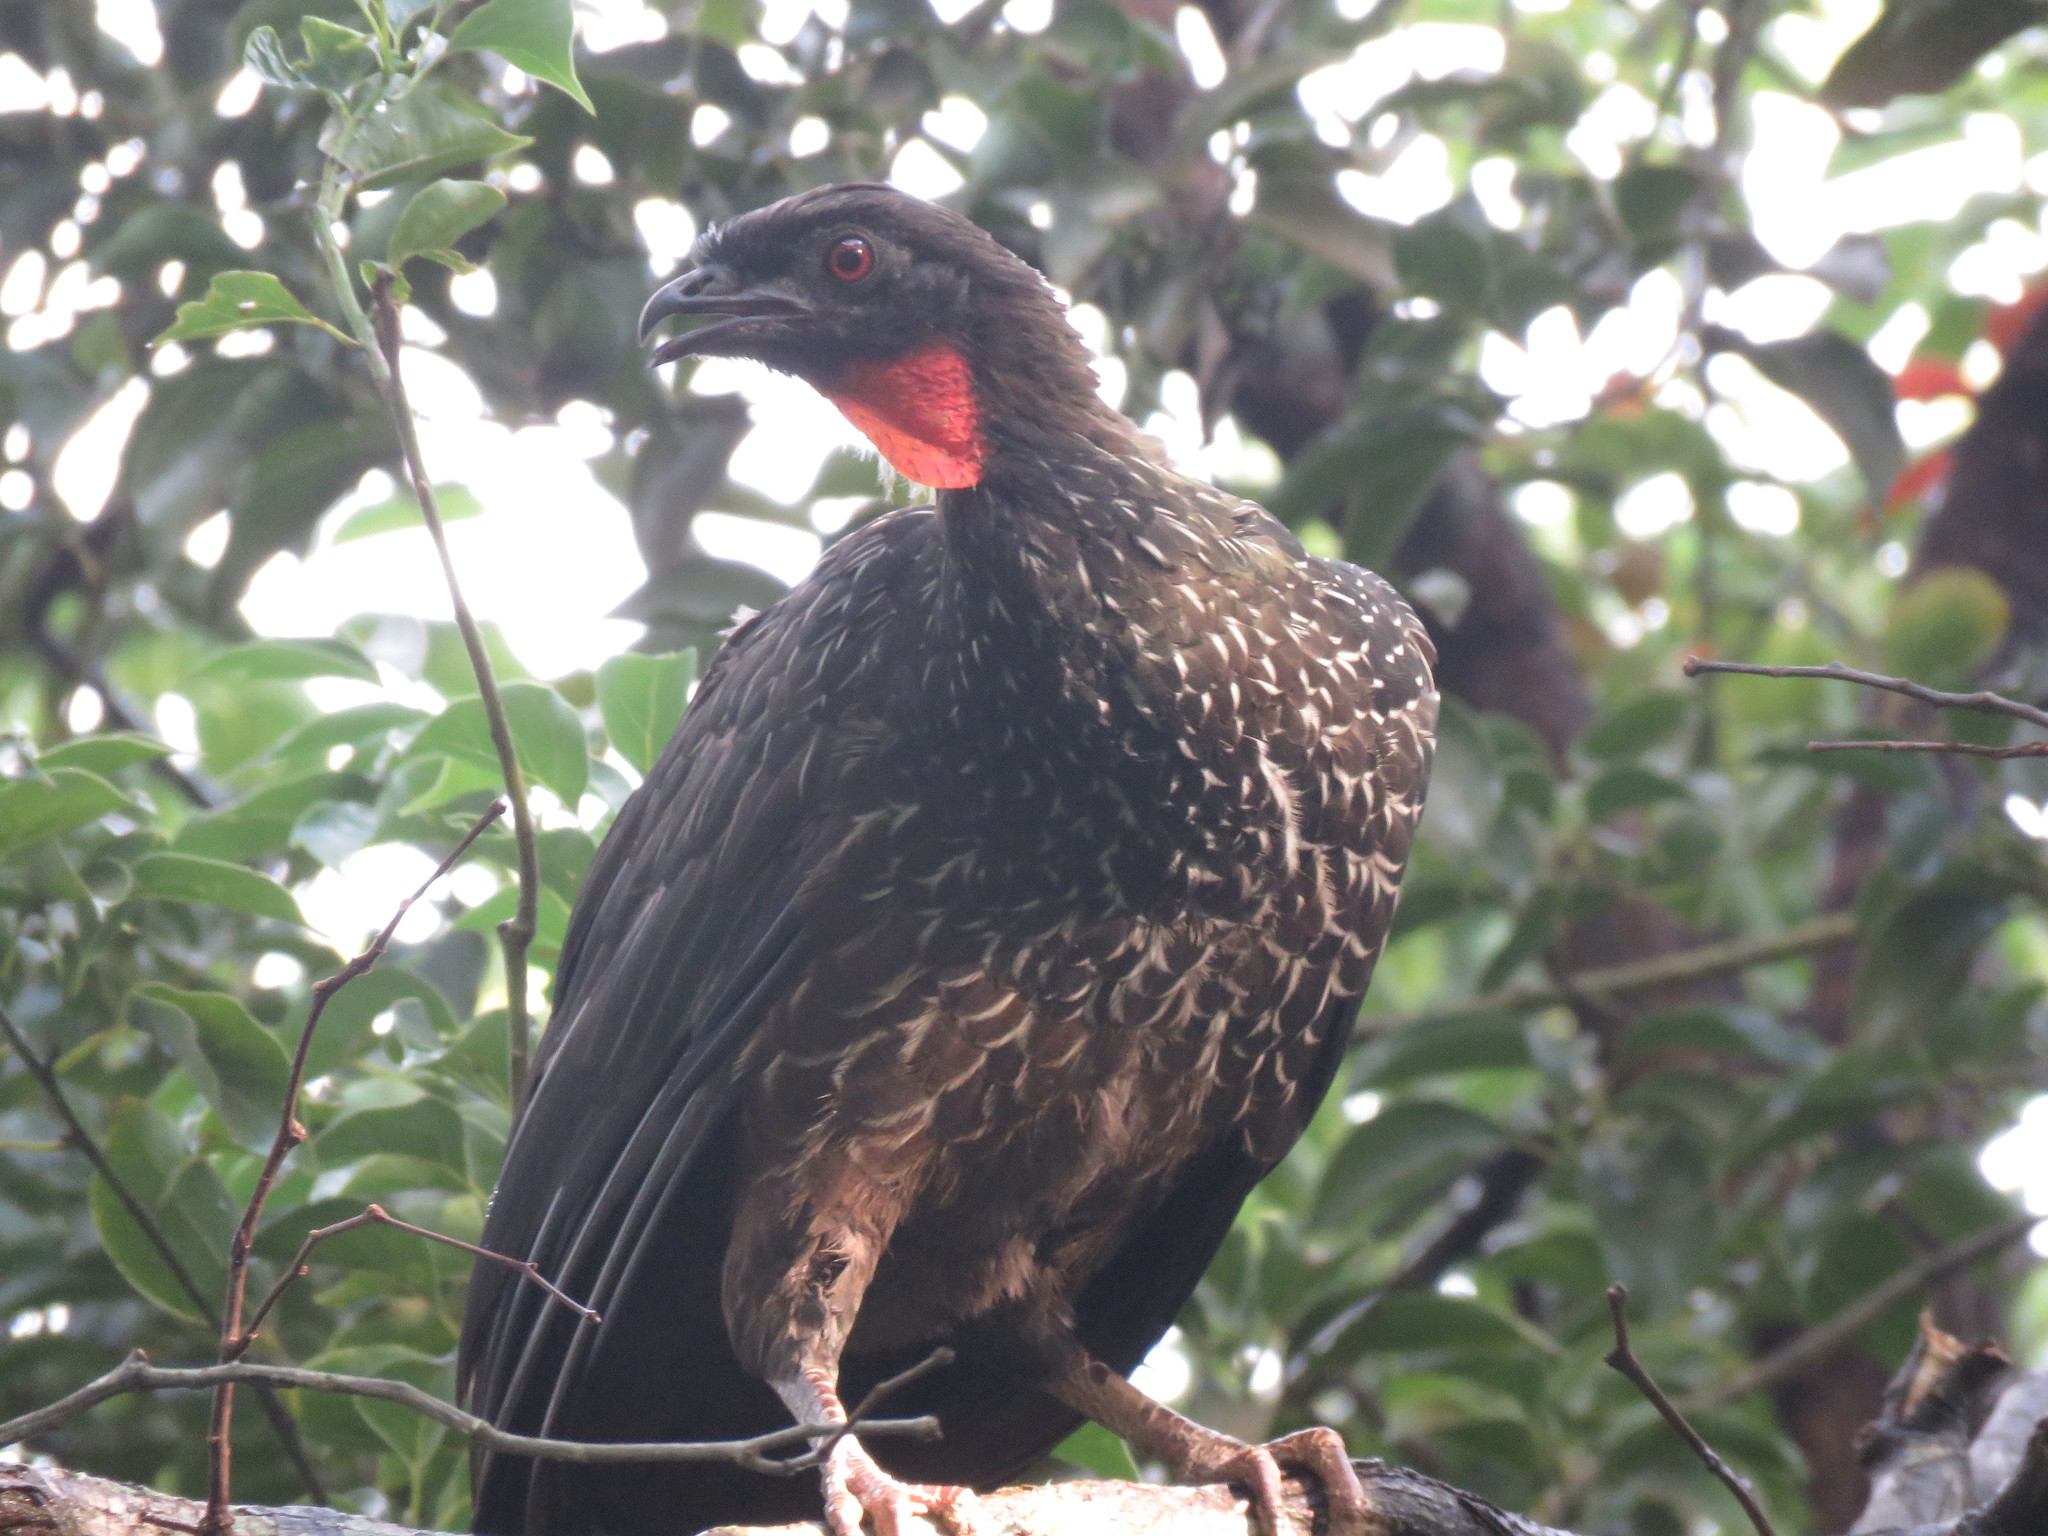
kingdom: Animalia
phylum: Chordata
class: Aves
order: Galliformes
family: Cracidae
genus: Penelope
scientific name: Penelope obscura
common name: Dusky-legged guan
